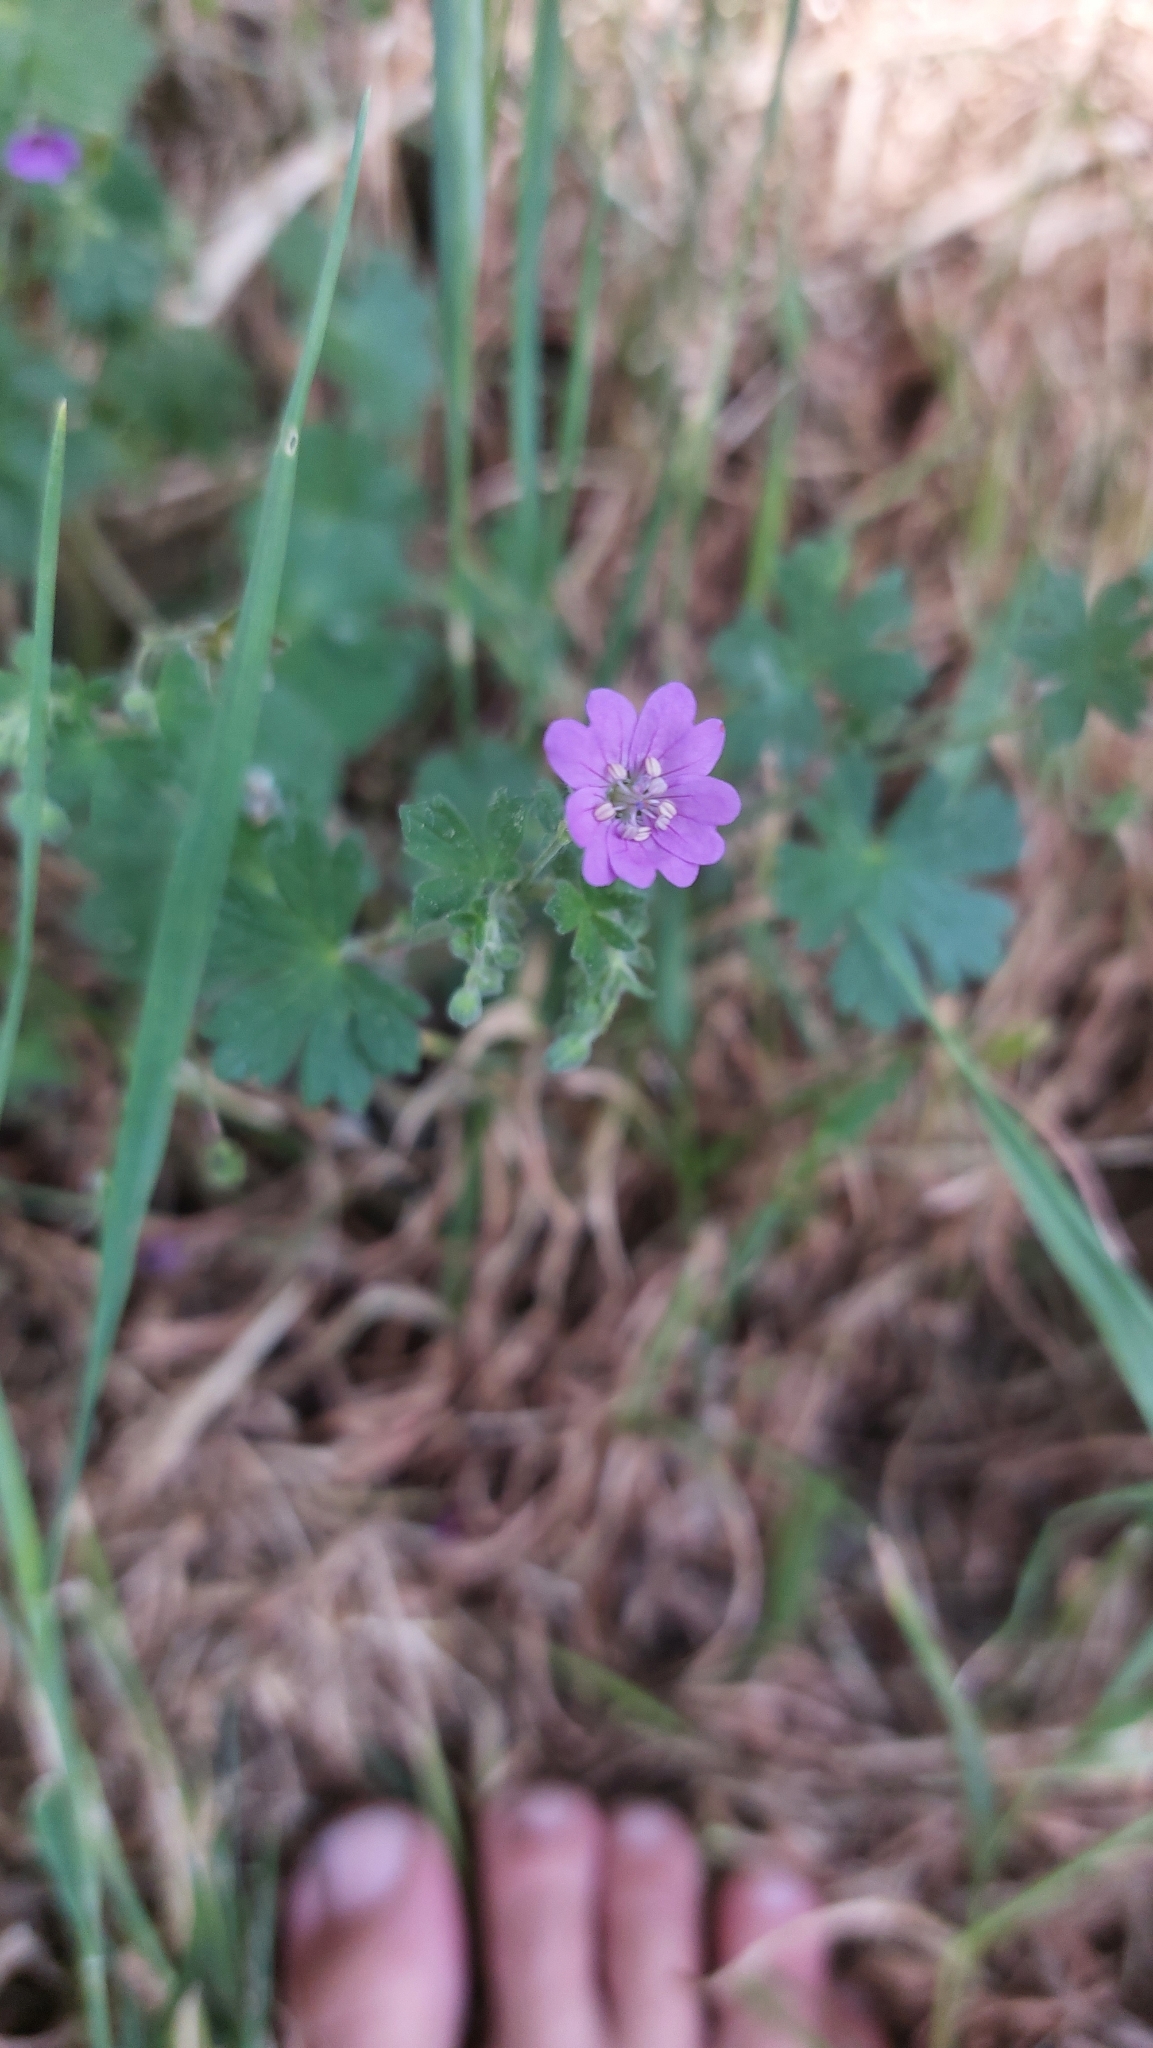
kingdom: Plantae
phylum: Tracheophyta
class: Magnoliopsida
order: Geraniales
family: Geraniaceae
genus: Geranium
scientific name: Geranium pyrenaicum
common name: Hedgerow crane's-bill
